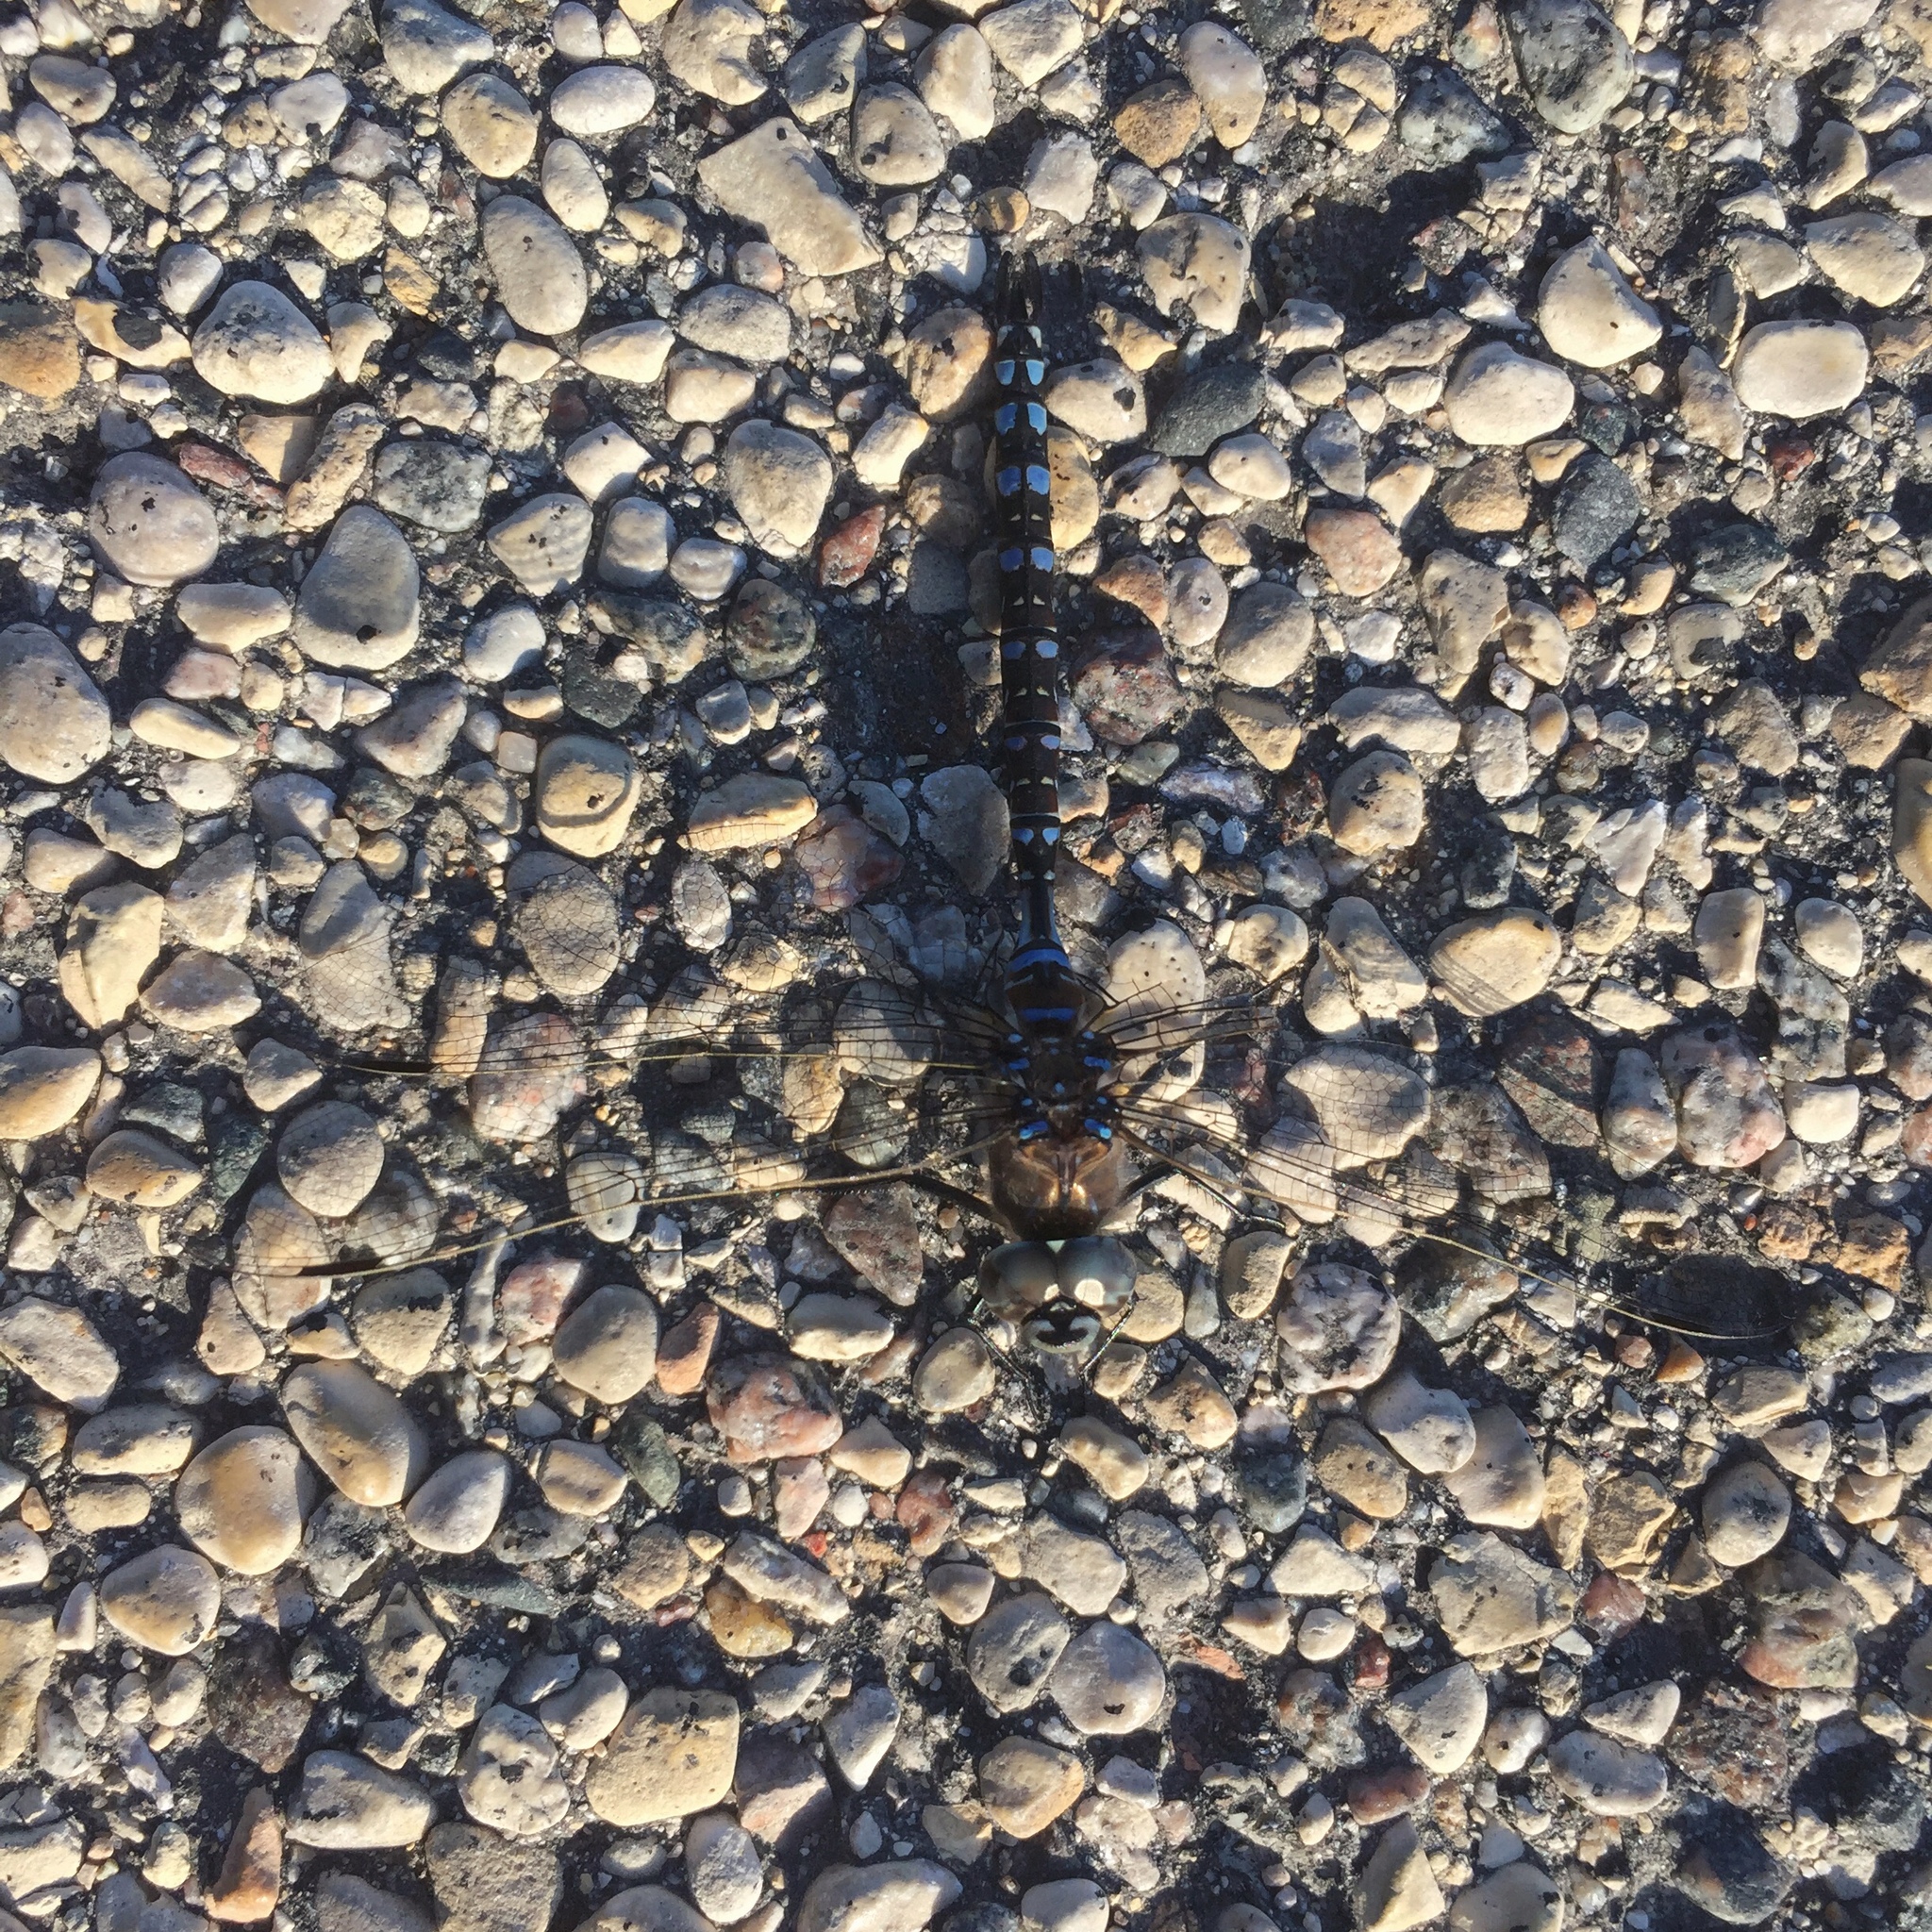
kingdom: Animalia
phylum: Arthropoda
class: Insecta
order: Odonata
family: Aeshnidae
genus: Aeshna
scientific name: Aeshna interrupta
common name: Variable darner
